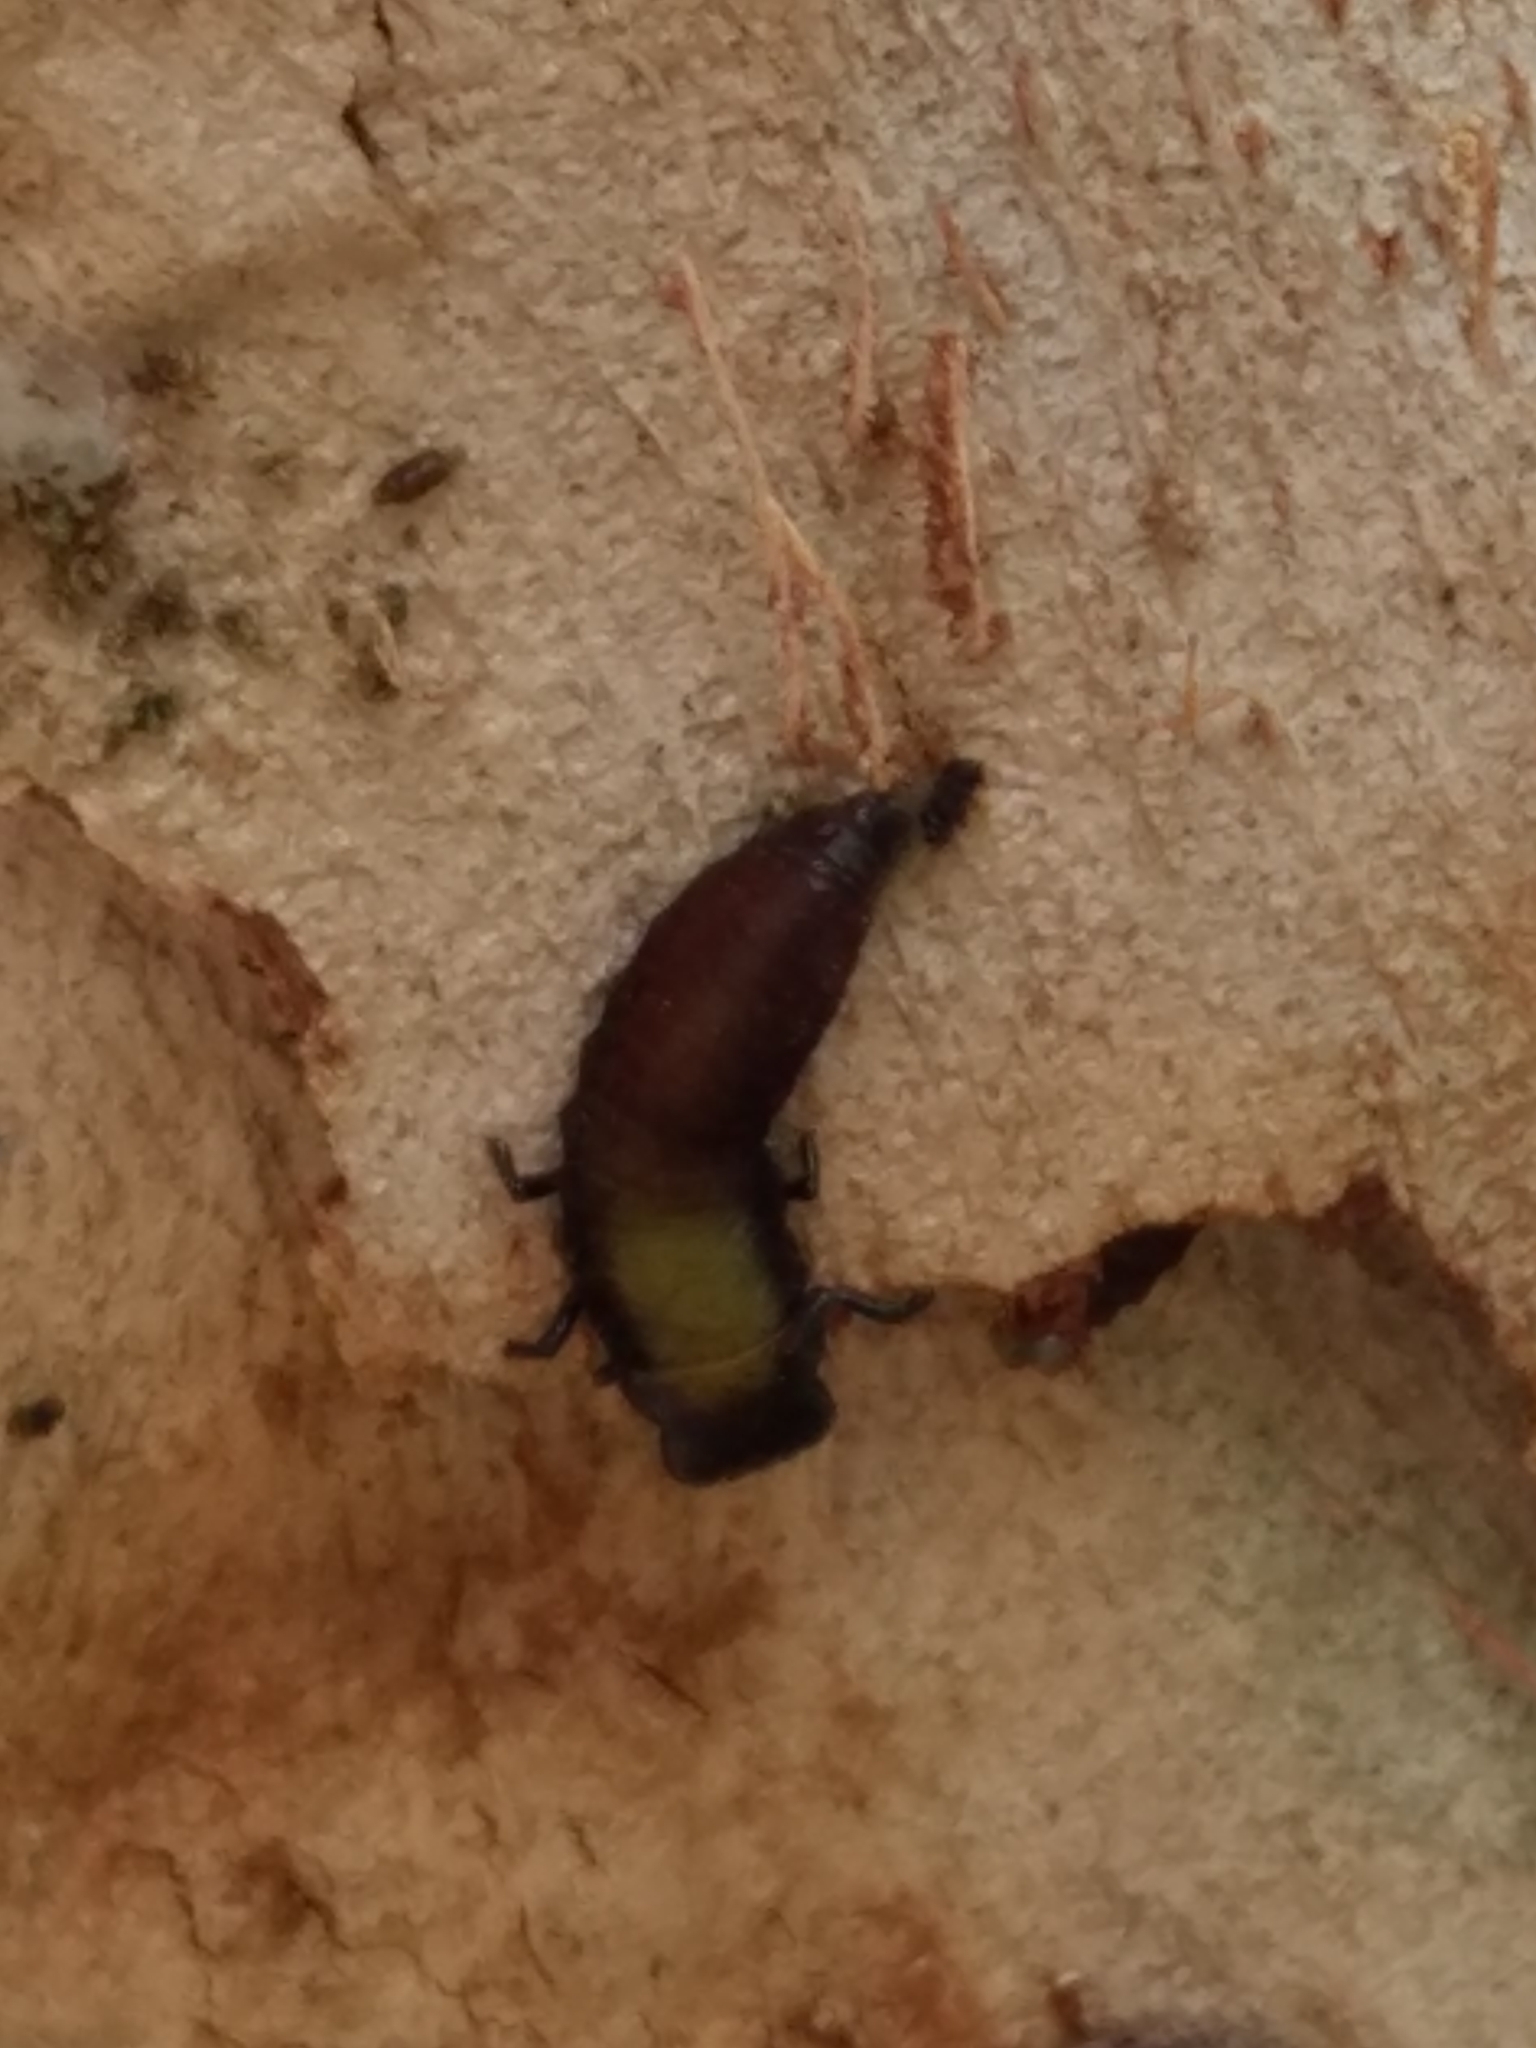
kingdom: Animalia
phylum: Arthropoda
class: Insecta
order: Coleoptera
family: Chrysomelidae
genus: Trachymela
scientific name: Trachymela sloanei
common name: Australian tortoise beetle
